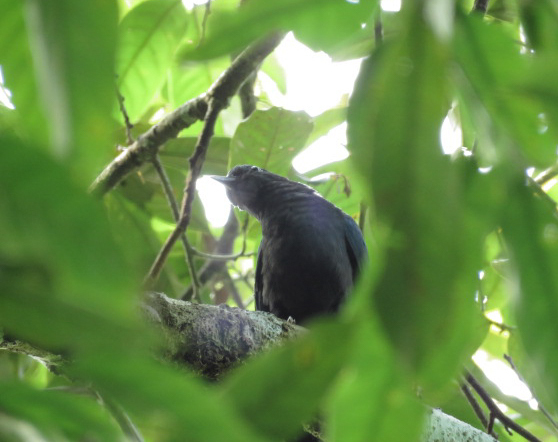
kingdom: Animalia
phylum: Chordata
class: Aves
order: Cuculiformes
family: Cuculidae
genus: Surniculus
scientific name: Surniculus lugubris
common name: Square-tailed drongo-cuckoo
